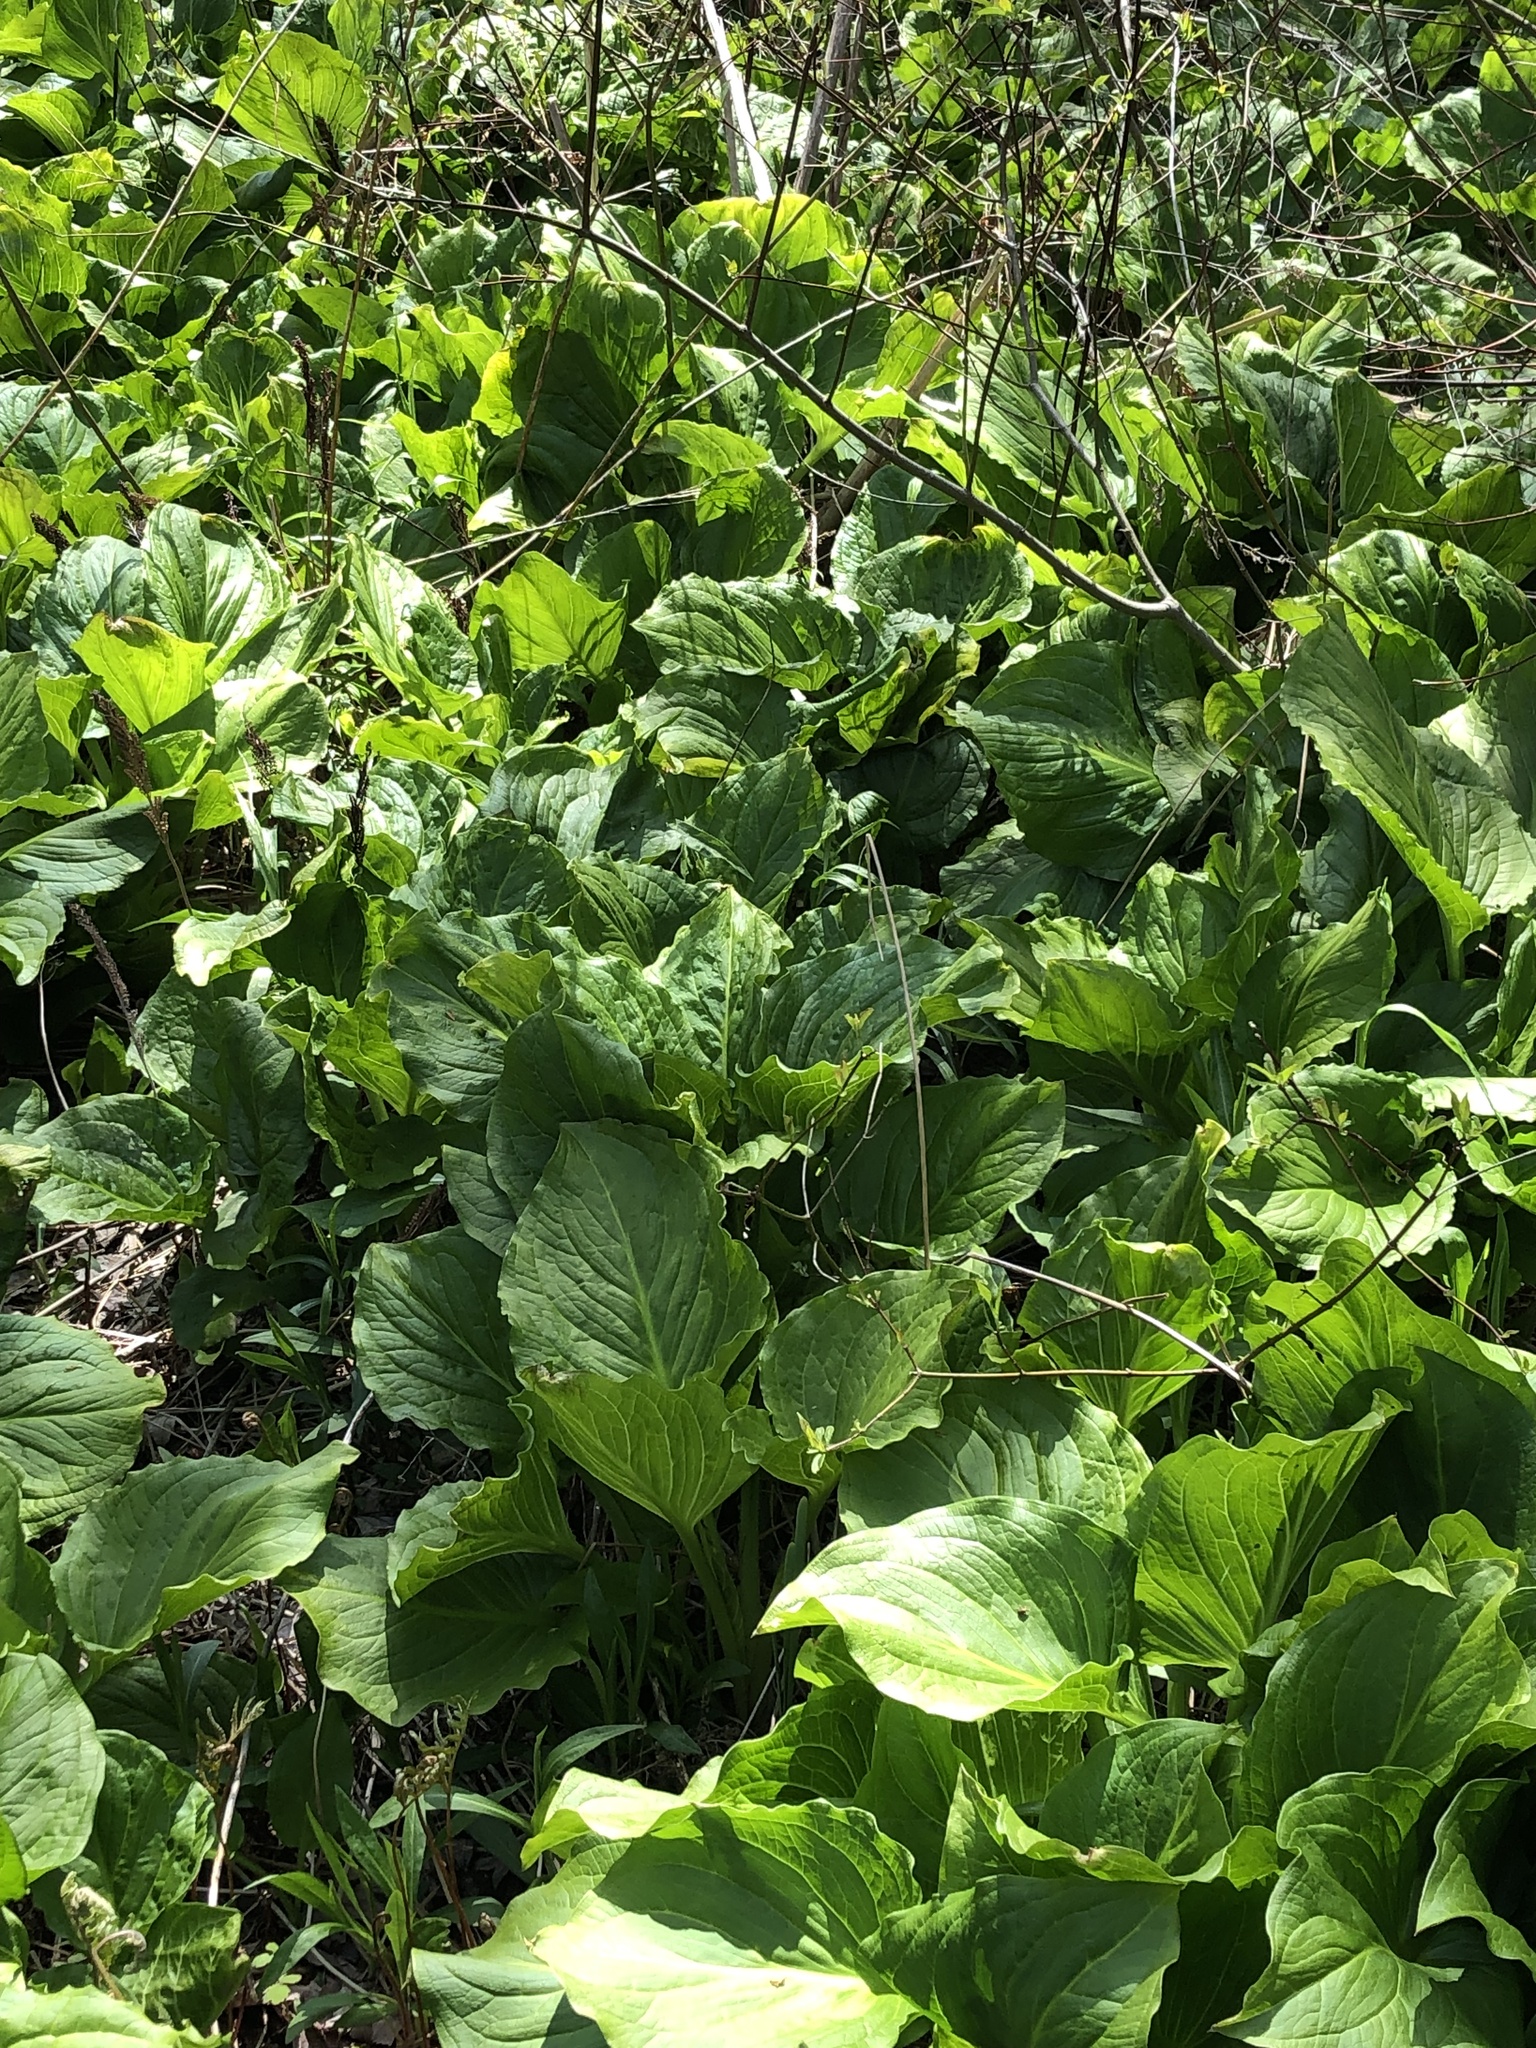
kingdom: Plantae
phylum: Tracheophyta
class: Liliopsida
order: Alismatales
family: Araceae
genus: Symplocarpus
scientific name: Symplocarpus foetidus
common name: Eastern skunk cabbage
